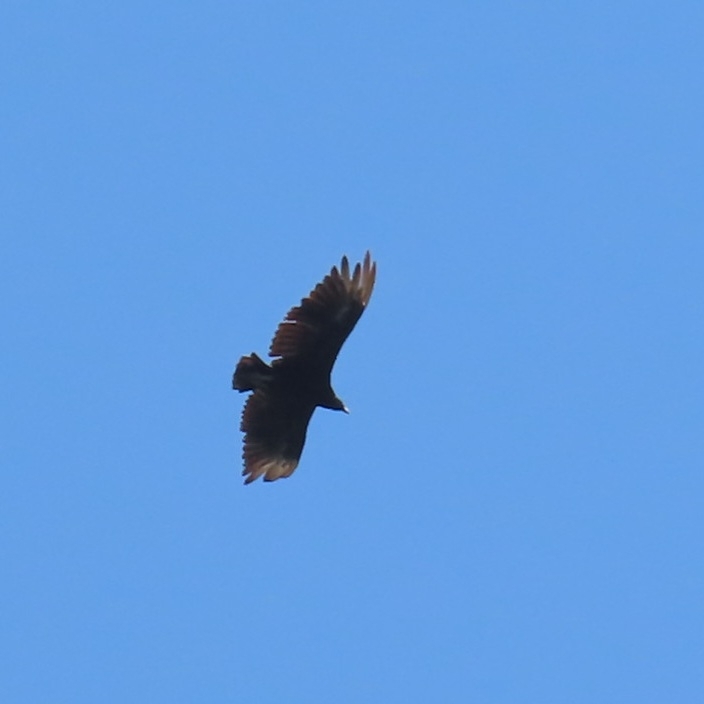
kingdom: Animalia
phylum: Chordata
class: Aves
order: Accipitriformes
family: Cathartidae
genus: Coragyps
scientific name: Coragyps atratus
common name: Black vulture
